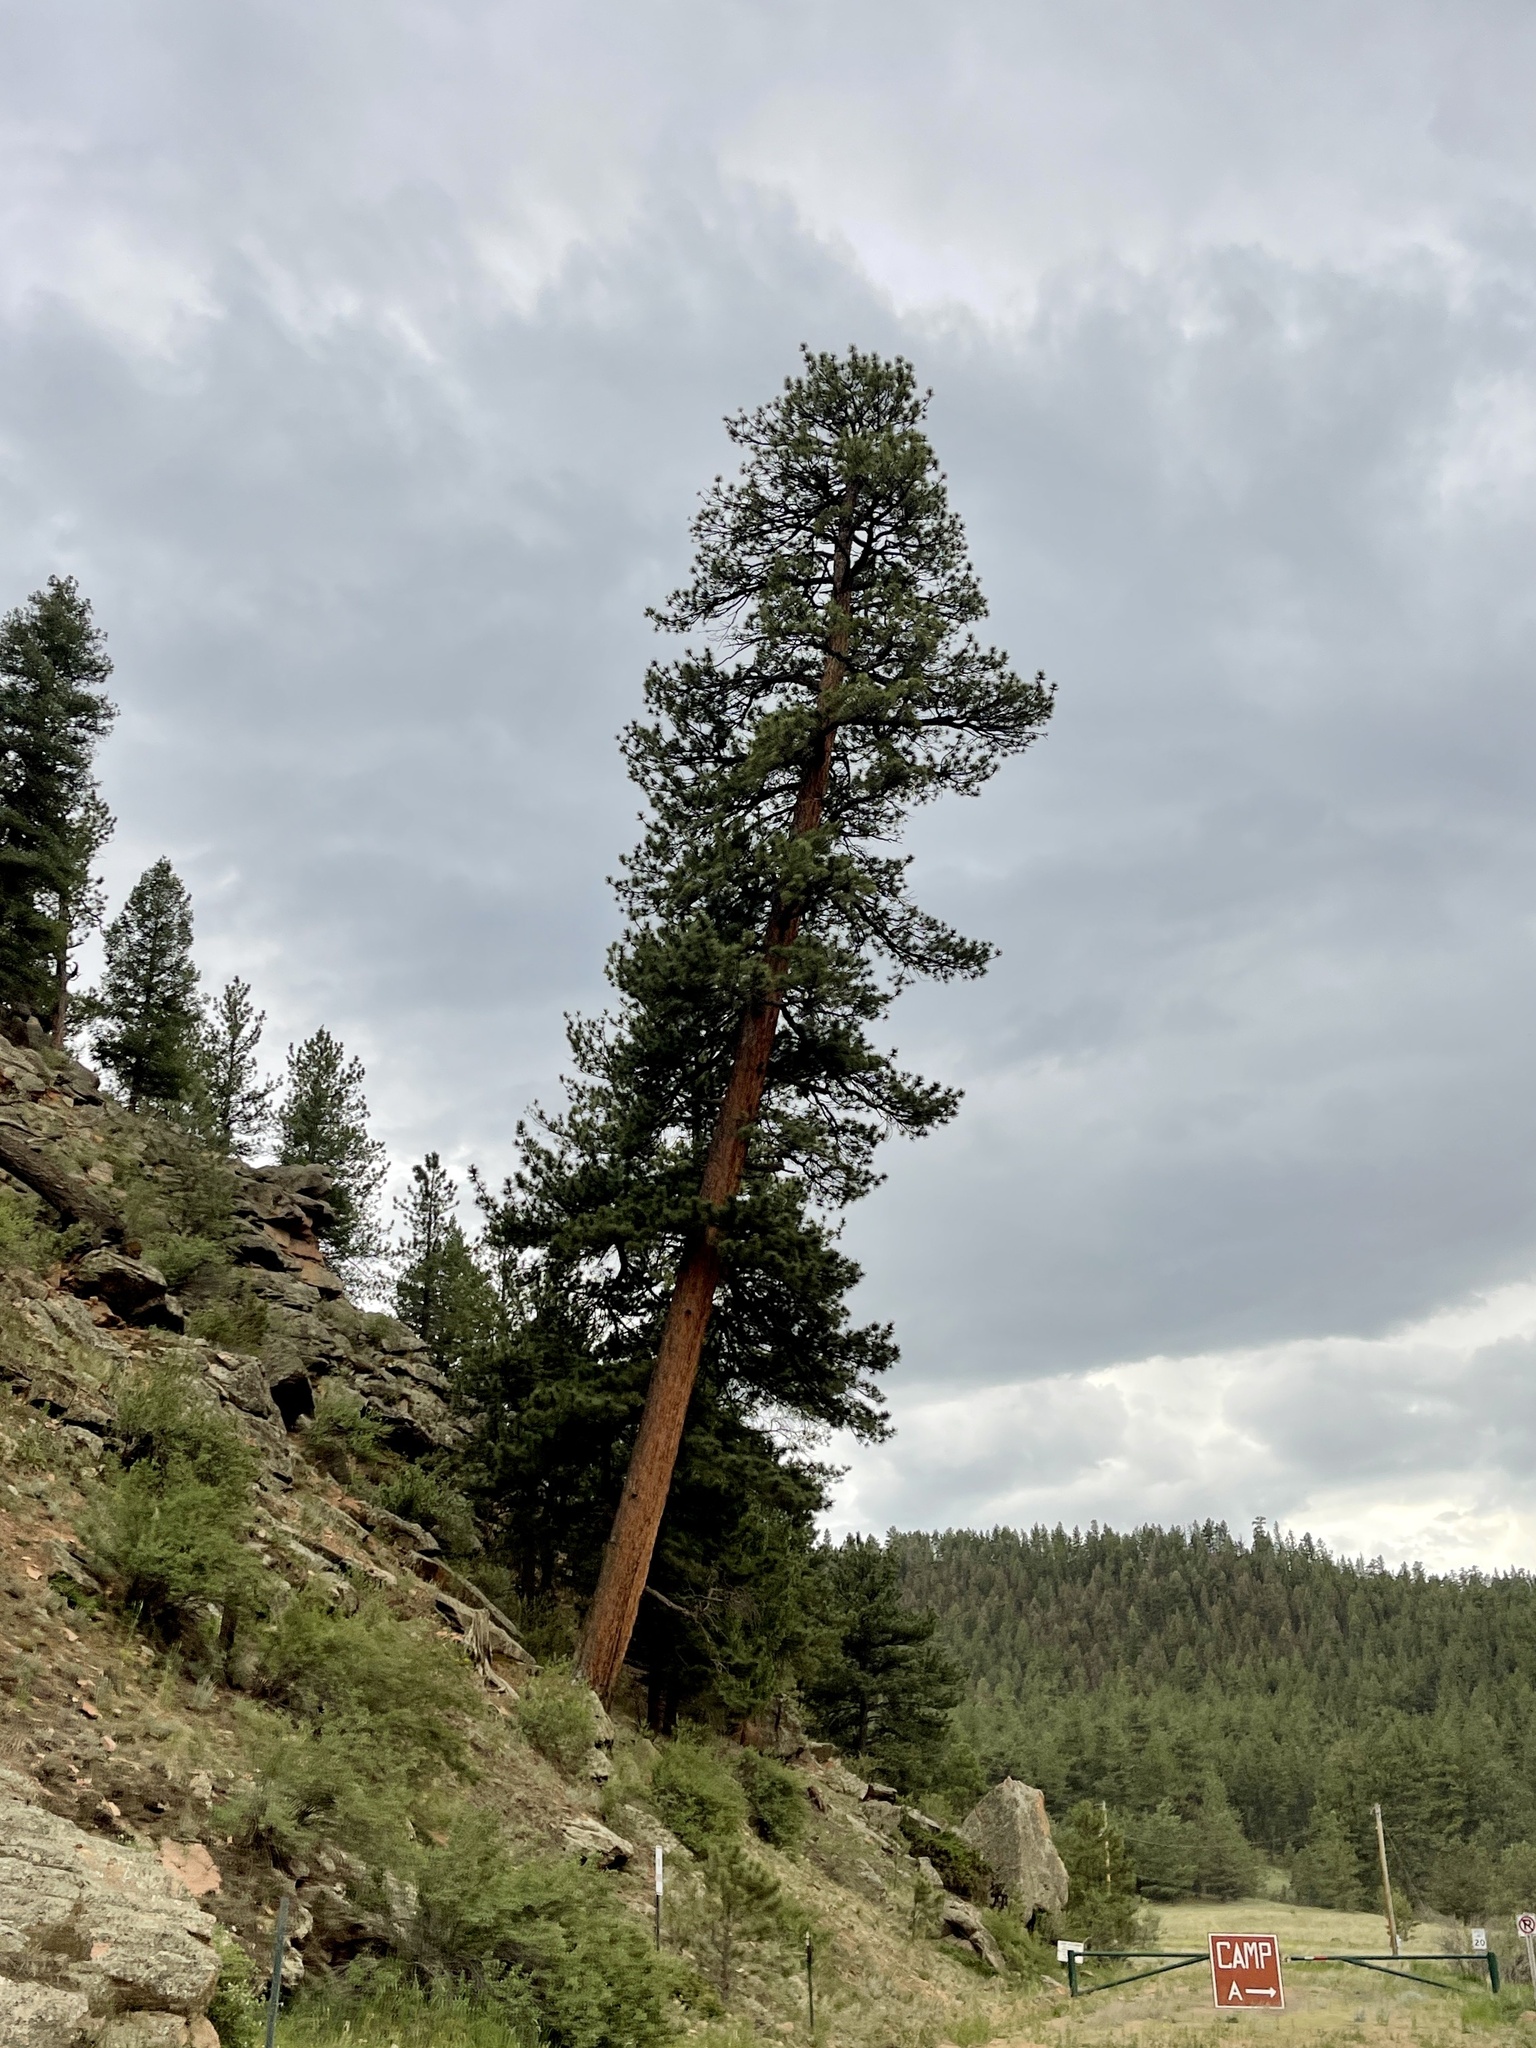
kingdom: Plantae
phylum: Tracheophyta
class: Pinopsida
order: Pinales
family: Pinaceae
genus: Pinus
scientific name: Pinus ponderosa
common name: Western yellow-pine
